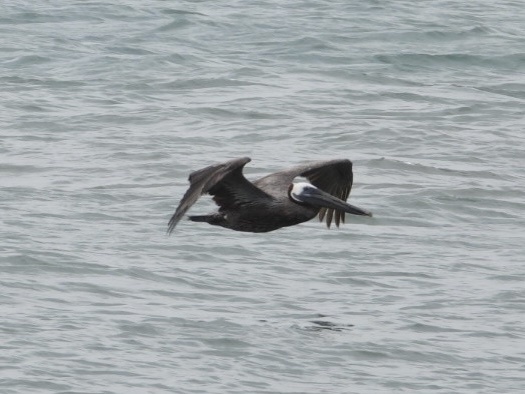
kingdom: Animalia
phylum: Chordata
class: Aves
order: Pelecaniformes
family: Pelecanidae
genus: Pelecanus
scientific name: Pelecanus occidentalis
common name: Brown pelican
